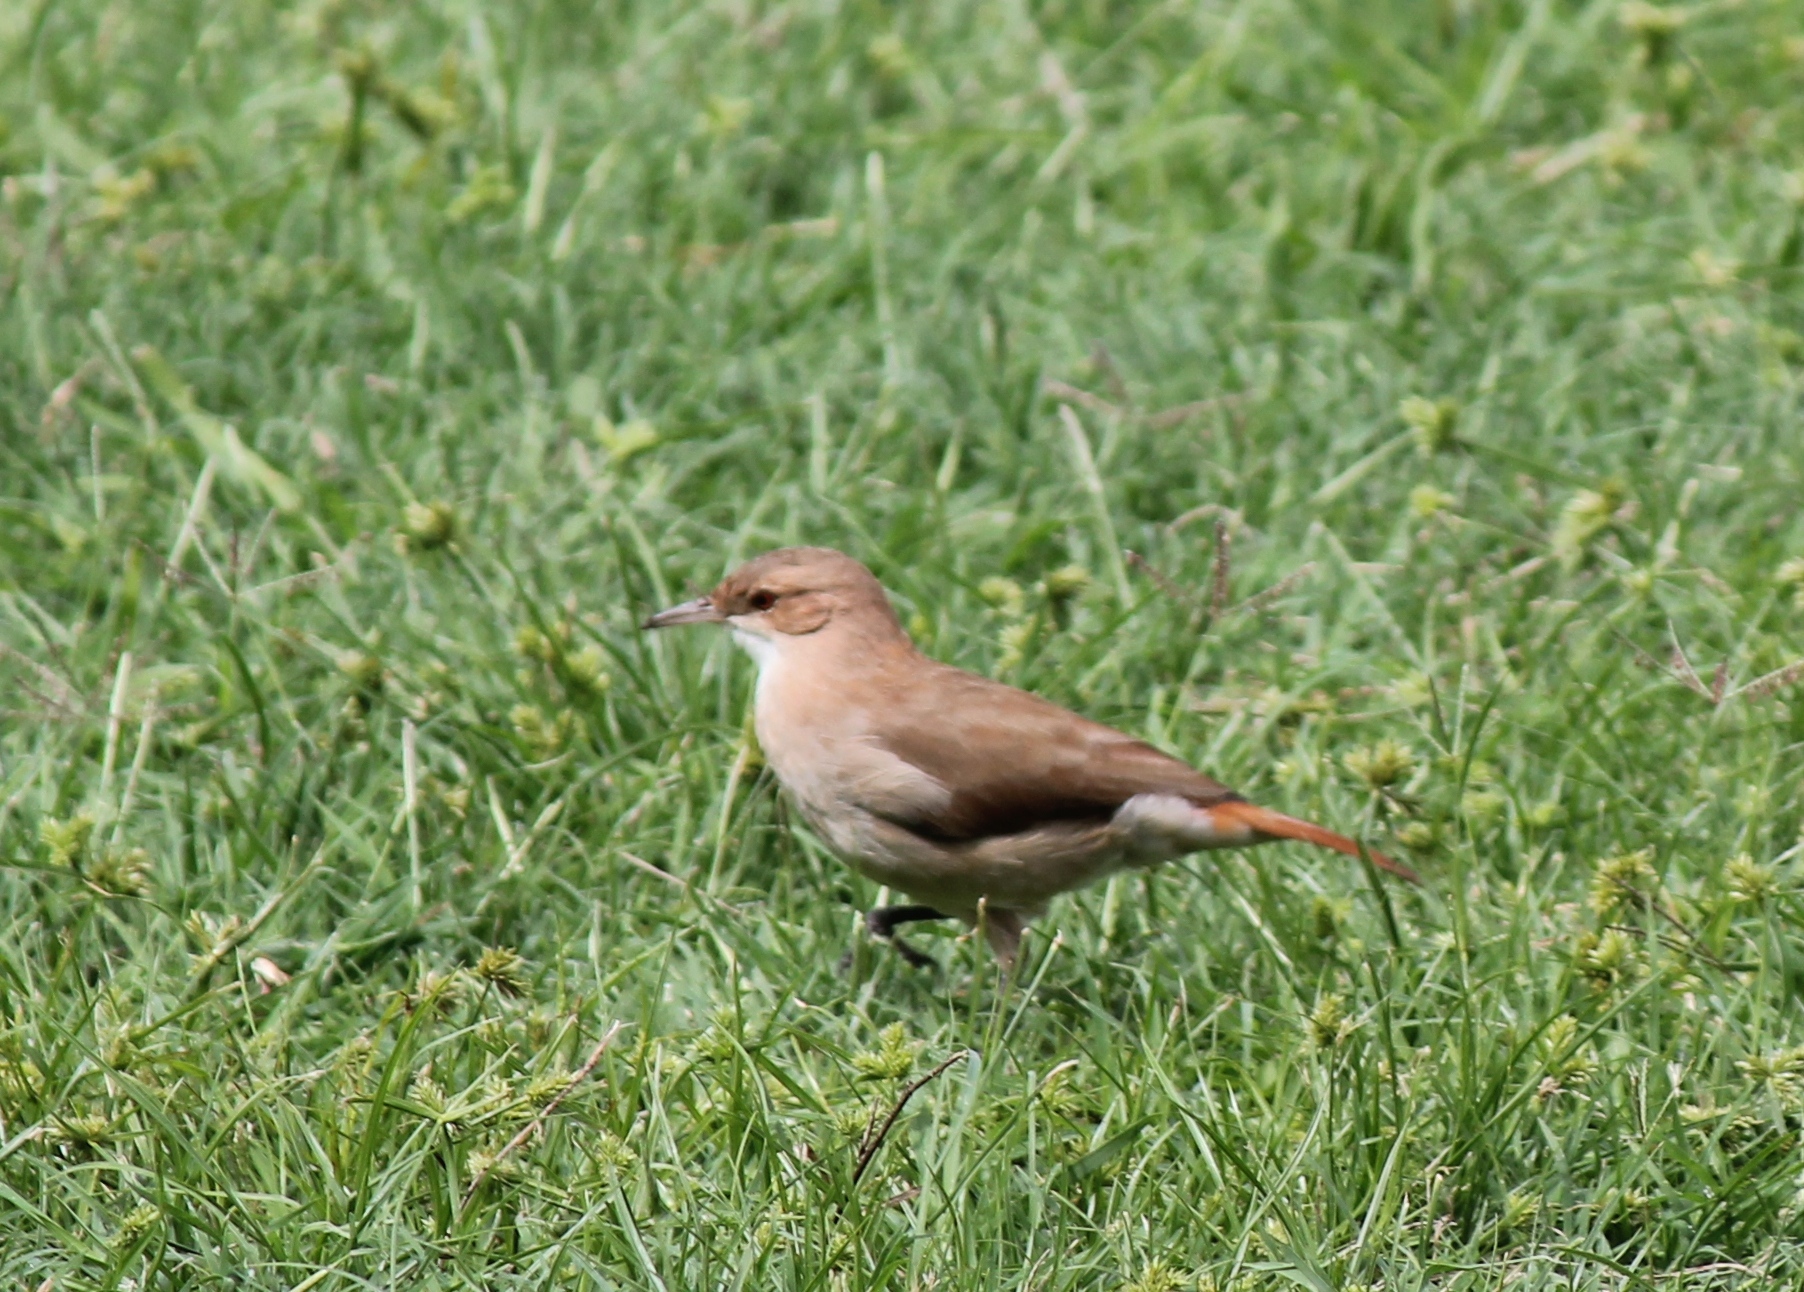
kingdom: Animalia
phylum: Chordata
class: Aves
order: Passeriformes
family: Furnariidae
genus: Furnarius
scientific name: Furnarius rufus
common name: Rufous hornero
